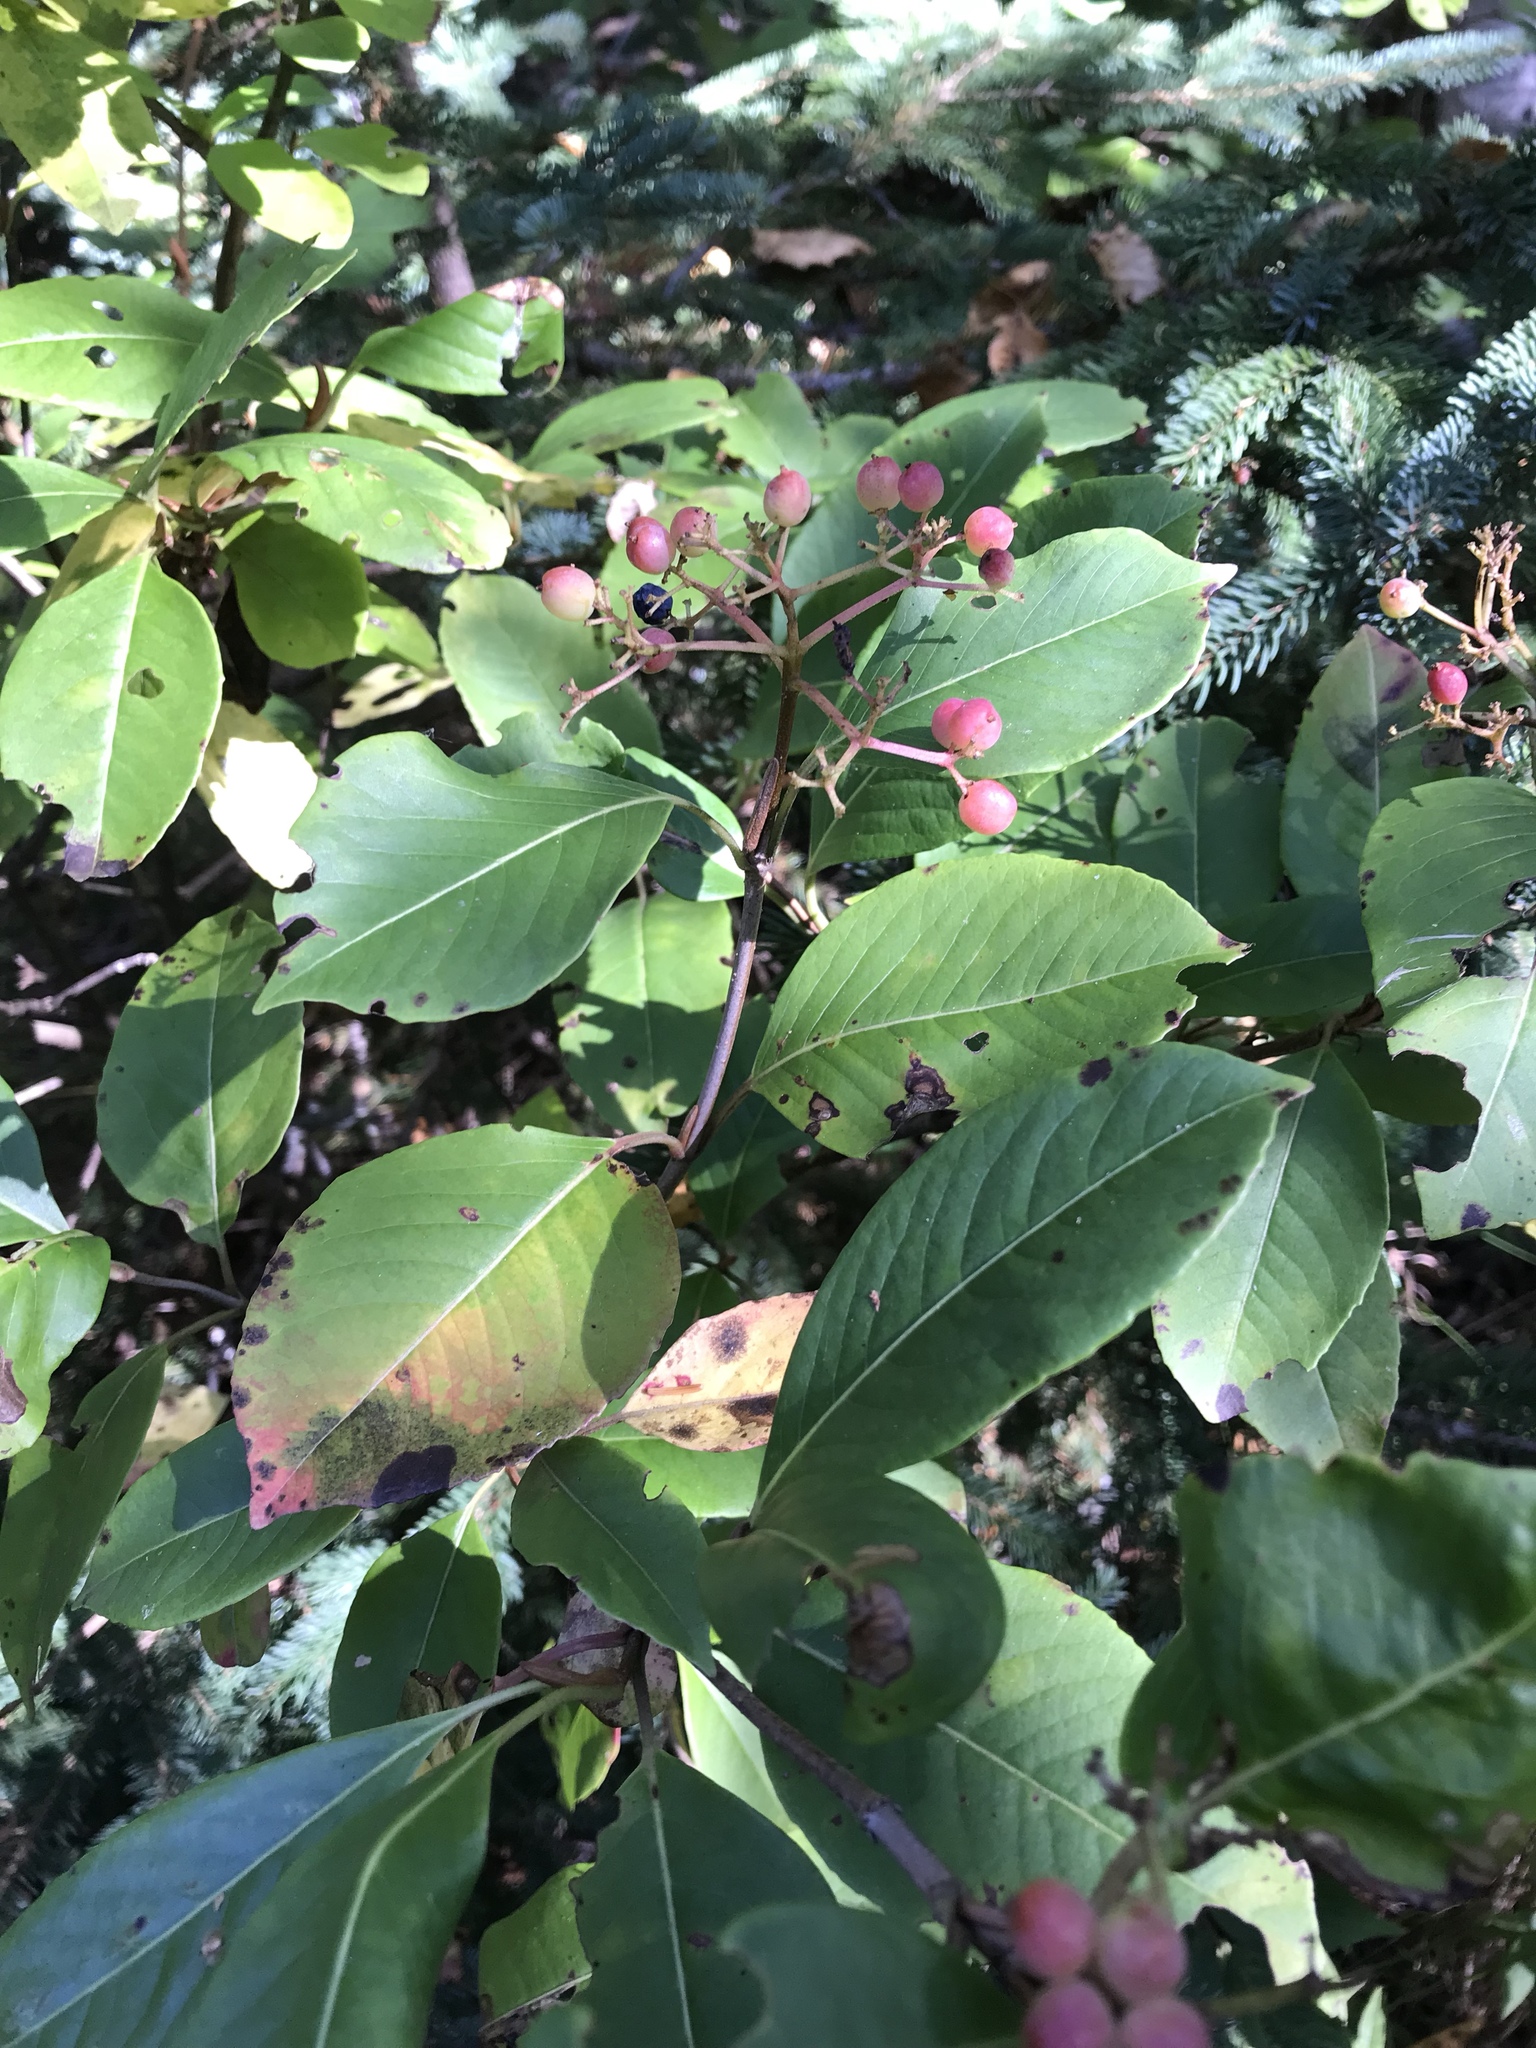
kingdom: Plantae
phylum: Tracheophyta
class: Magnoliopsida
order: Dipsacales
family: Viburnaceae
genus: Viburnum
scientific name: Viburnum cassinoides
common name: Swamp haw
